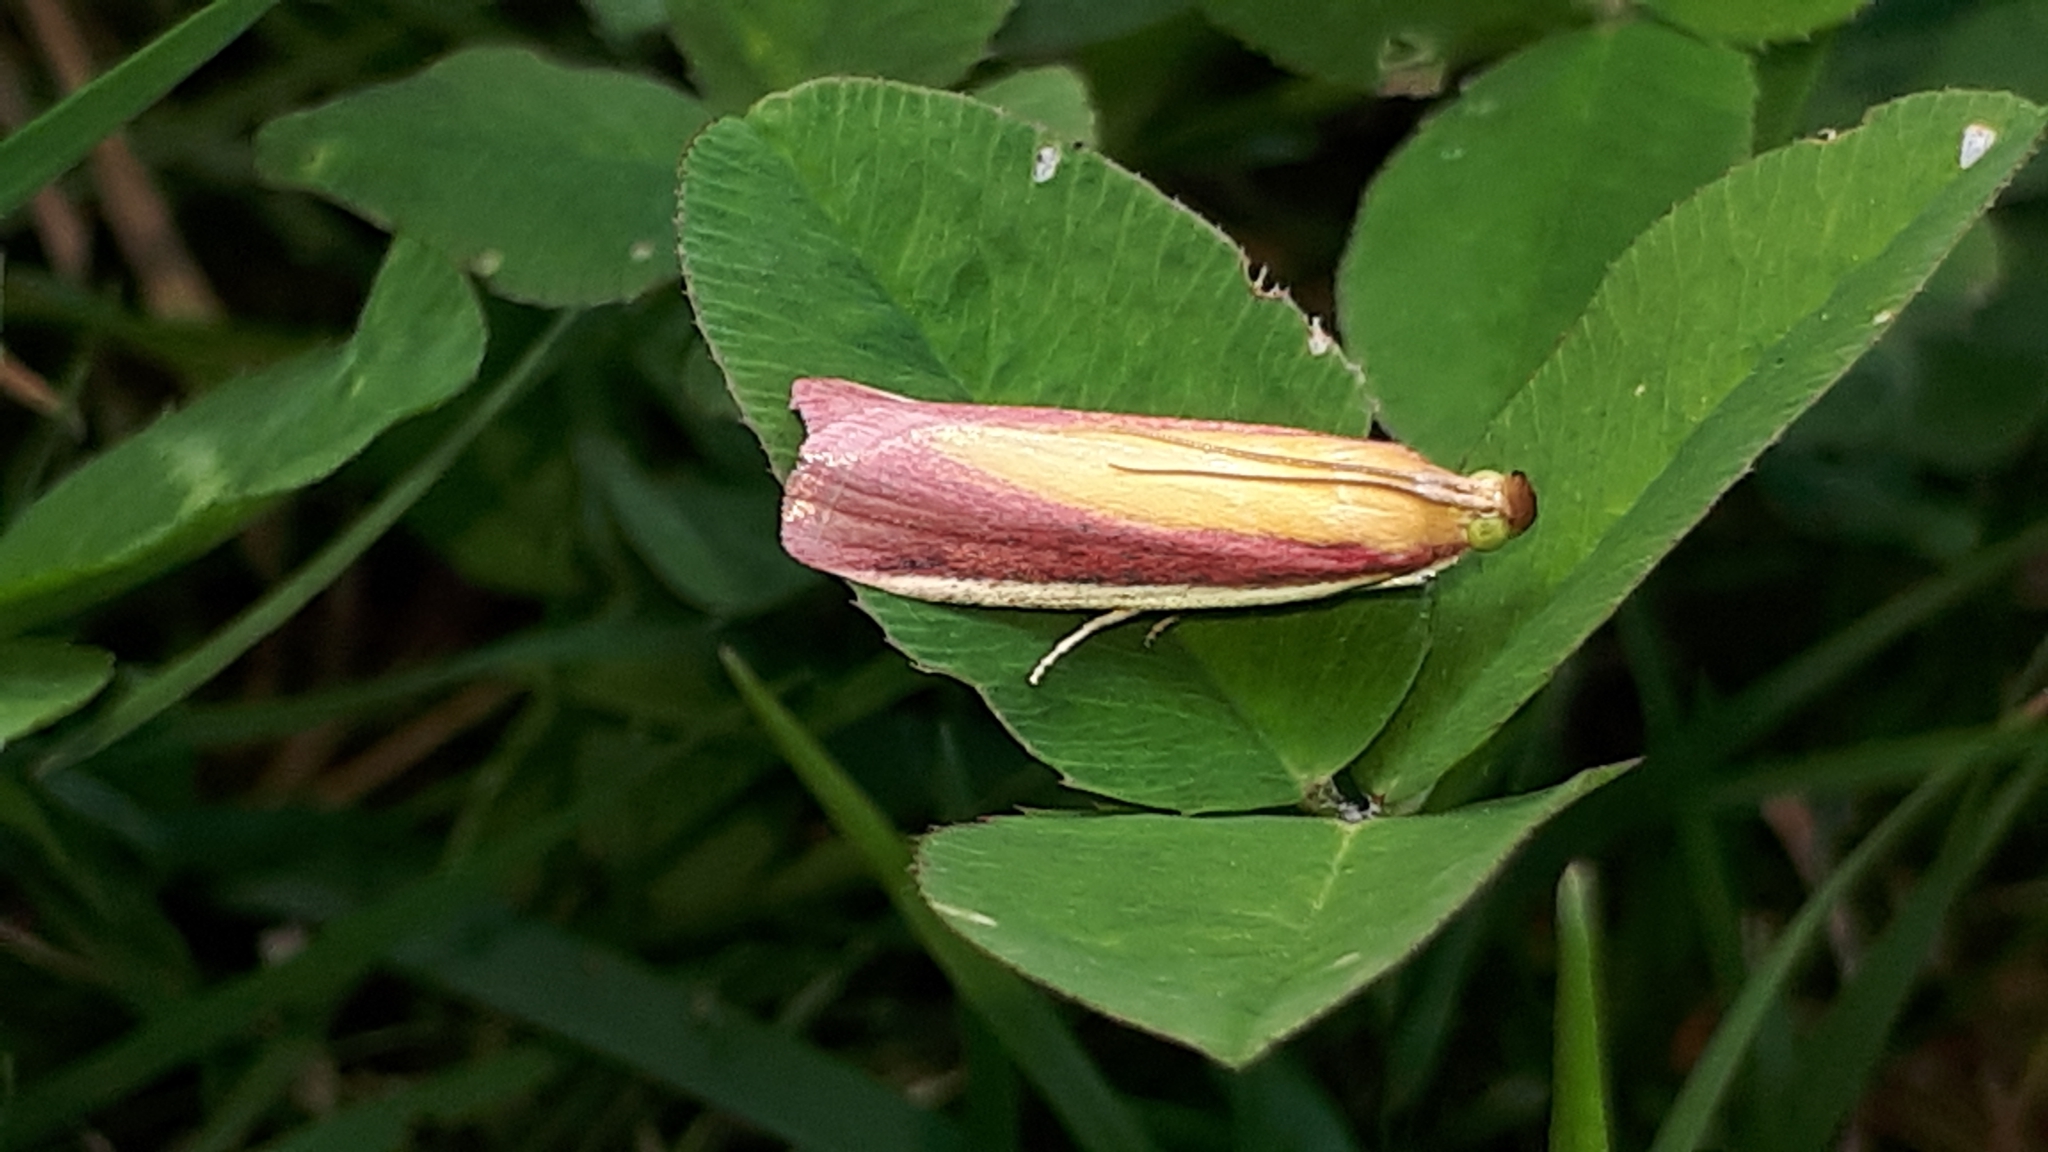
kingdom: Animalia
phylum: Arthropoda
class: Insecta
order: Lepidoptera
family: Pyralidae
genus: Oncocera
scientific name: Oncocera semirubella
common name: Rosy-striped knot-horn
